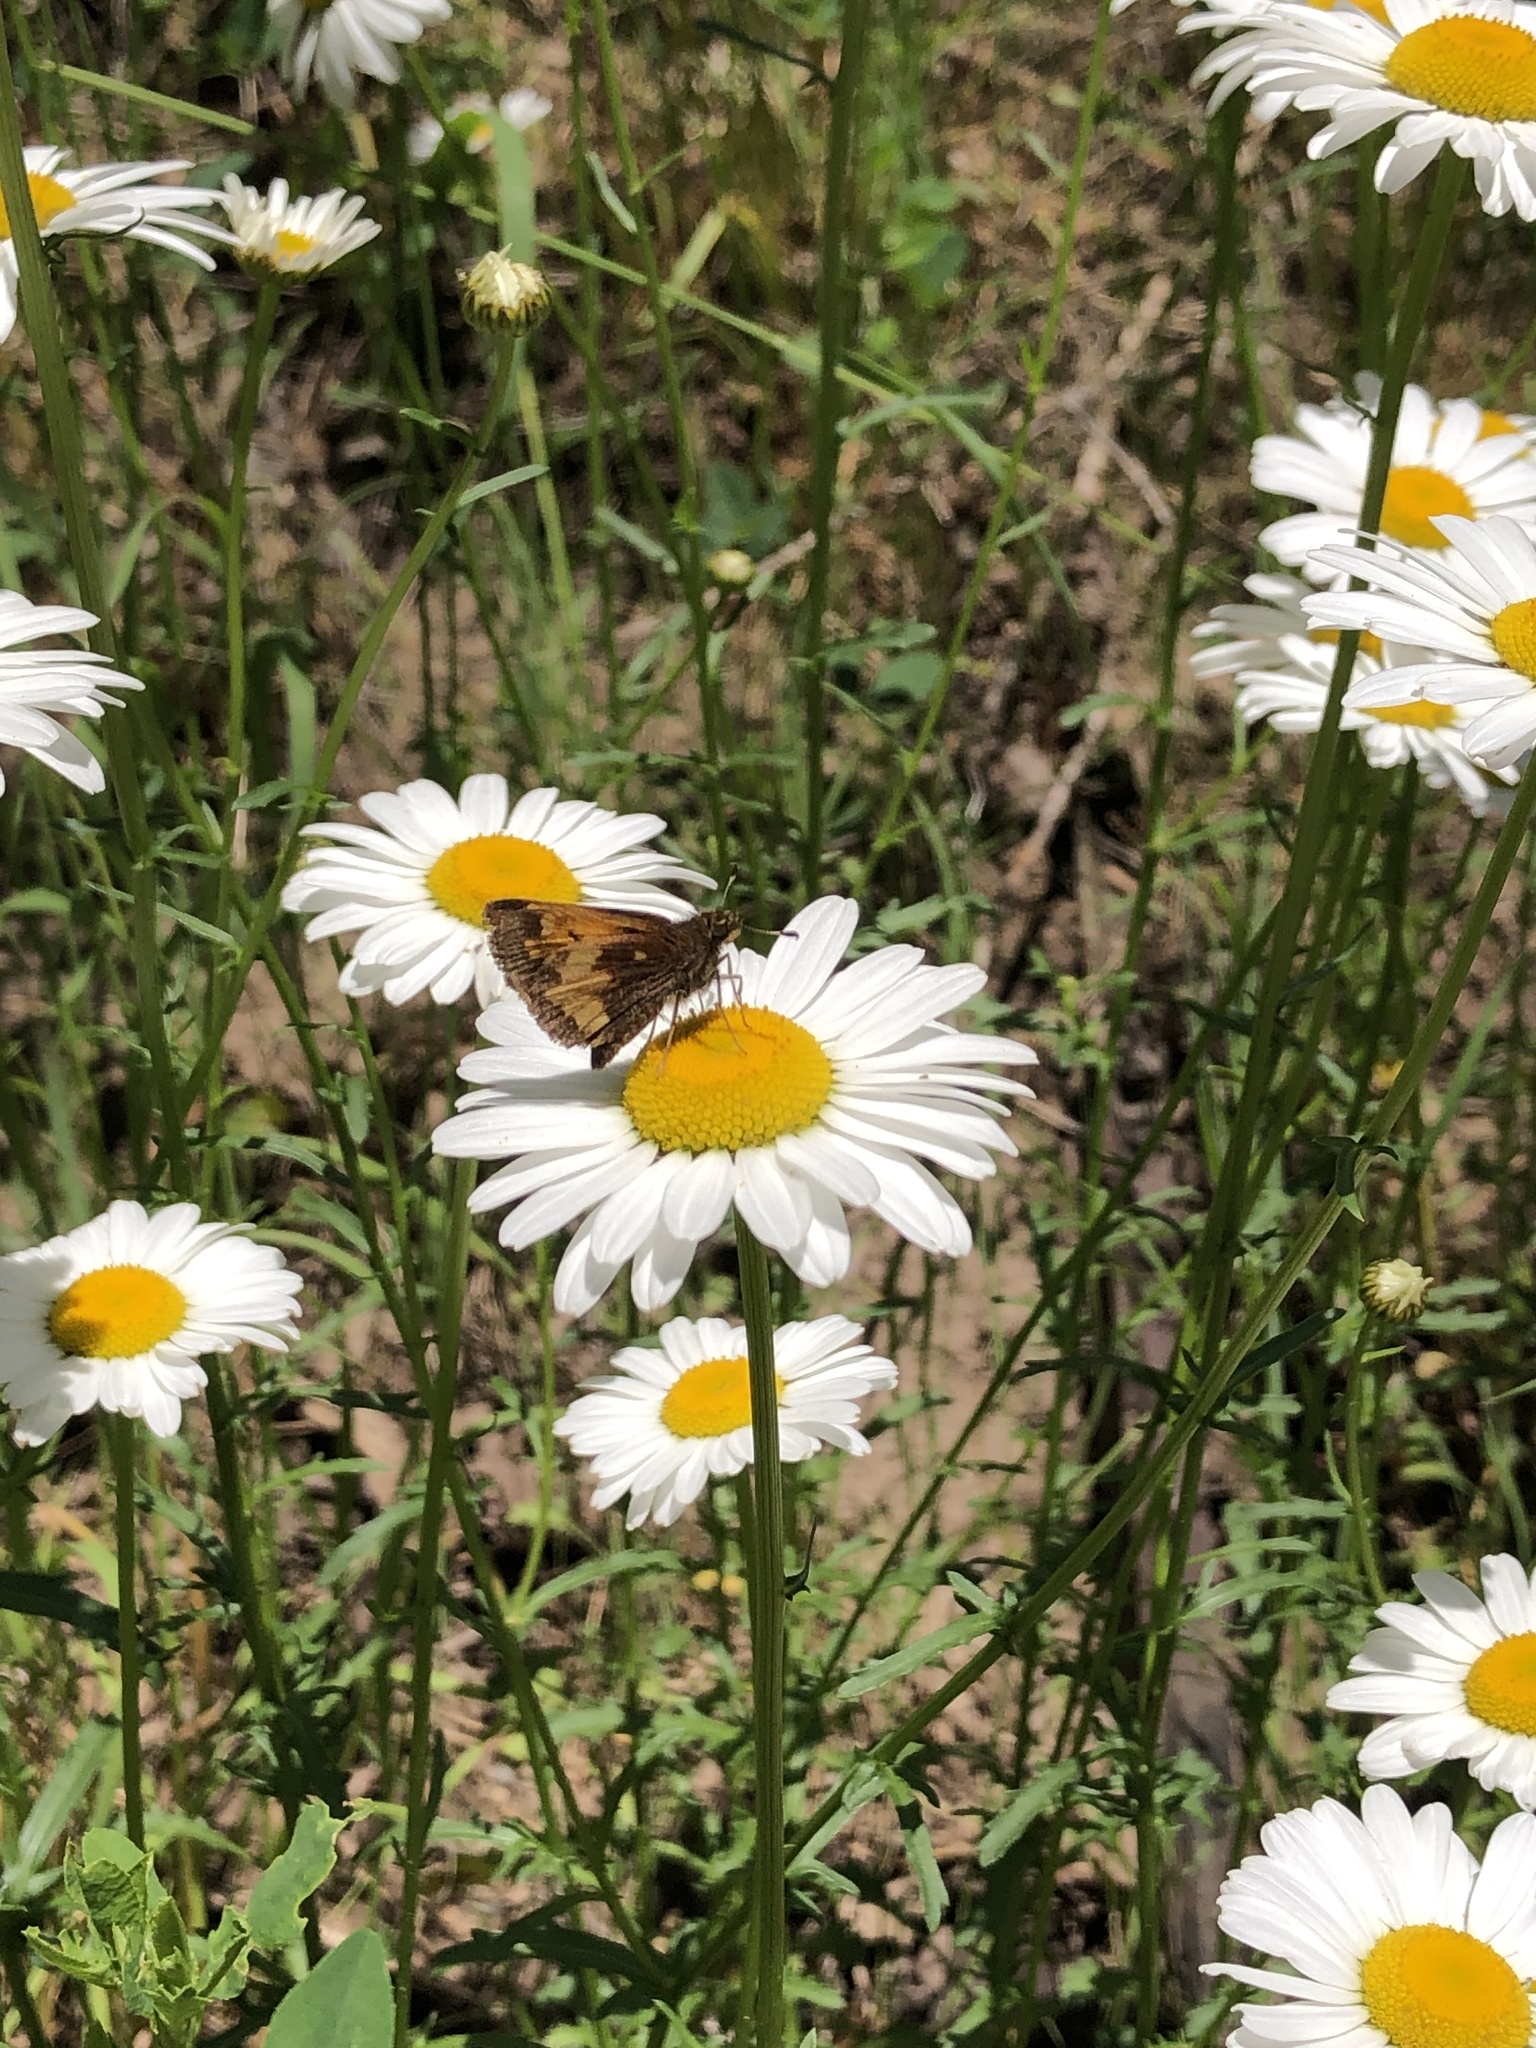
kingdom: Animalia
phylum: Arthropoda
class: Insecta
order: Lepidoptera
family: Hesperiidae
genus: Lon
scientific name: Lon hobomok
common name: Hobomok skipper
